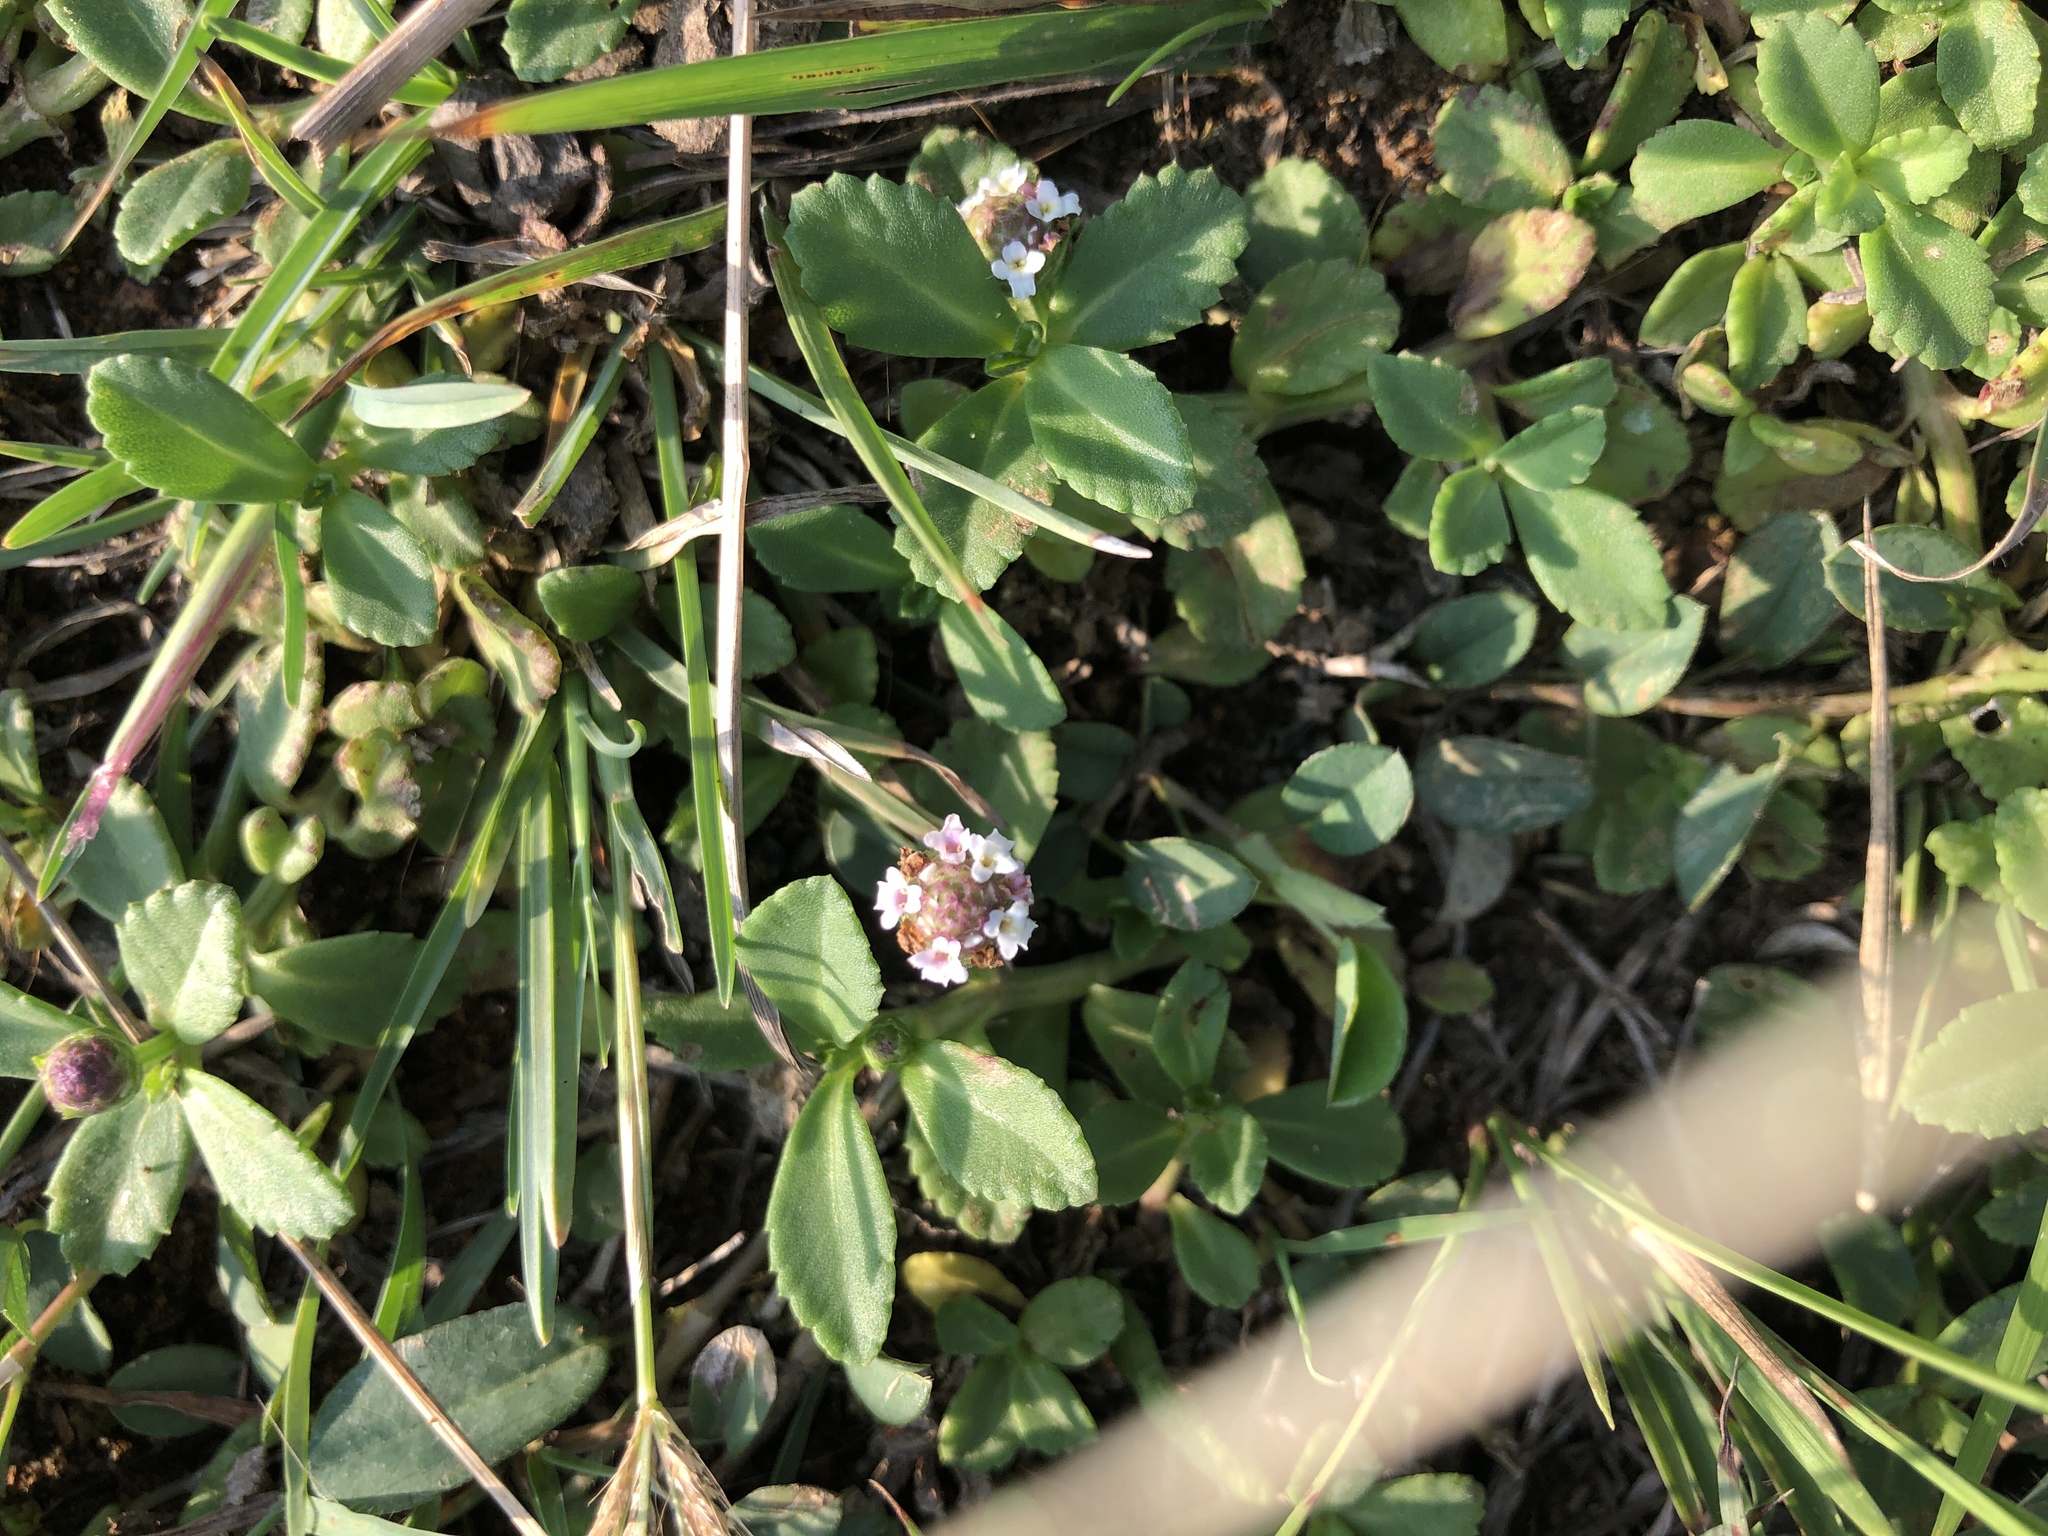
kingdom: Plantae
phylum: Tracheophyta
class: Magnoliopsida
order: Lamiales
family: Verbenaceae
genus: Phyla
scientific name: Phyla nodiflora
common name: Frogfruit
